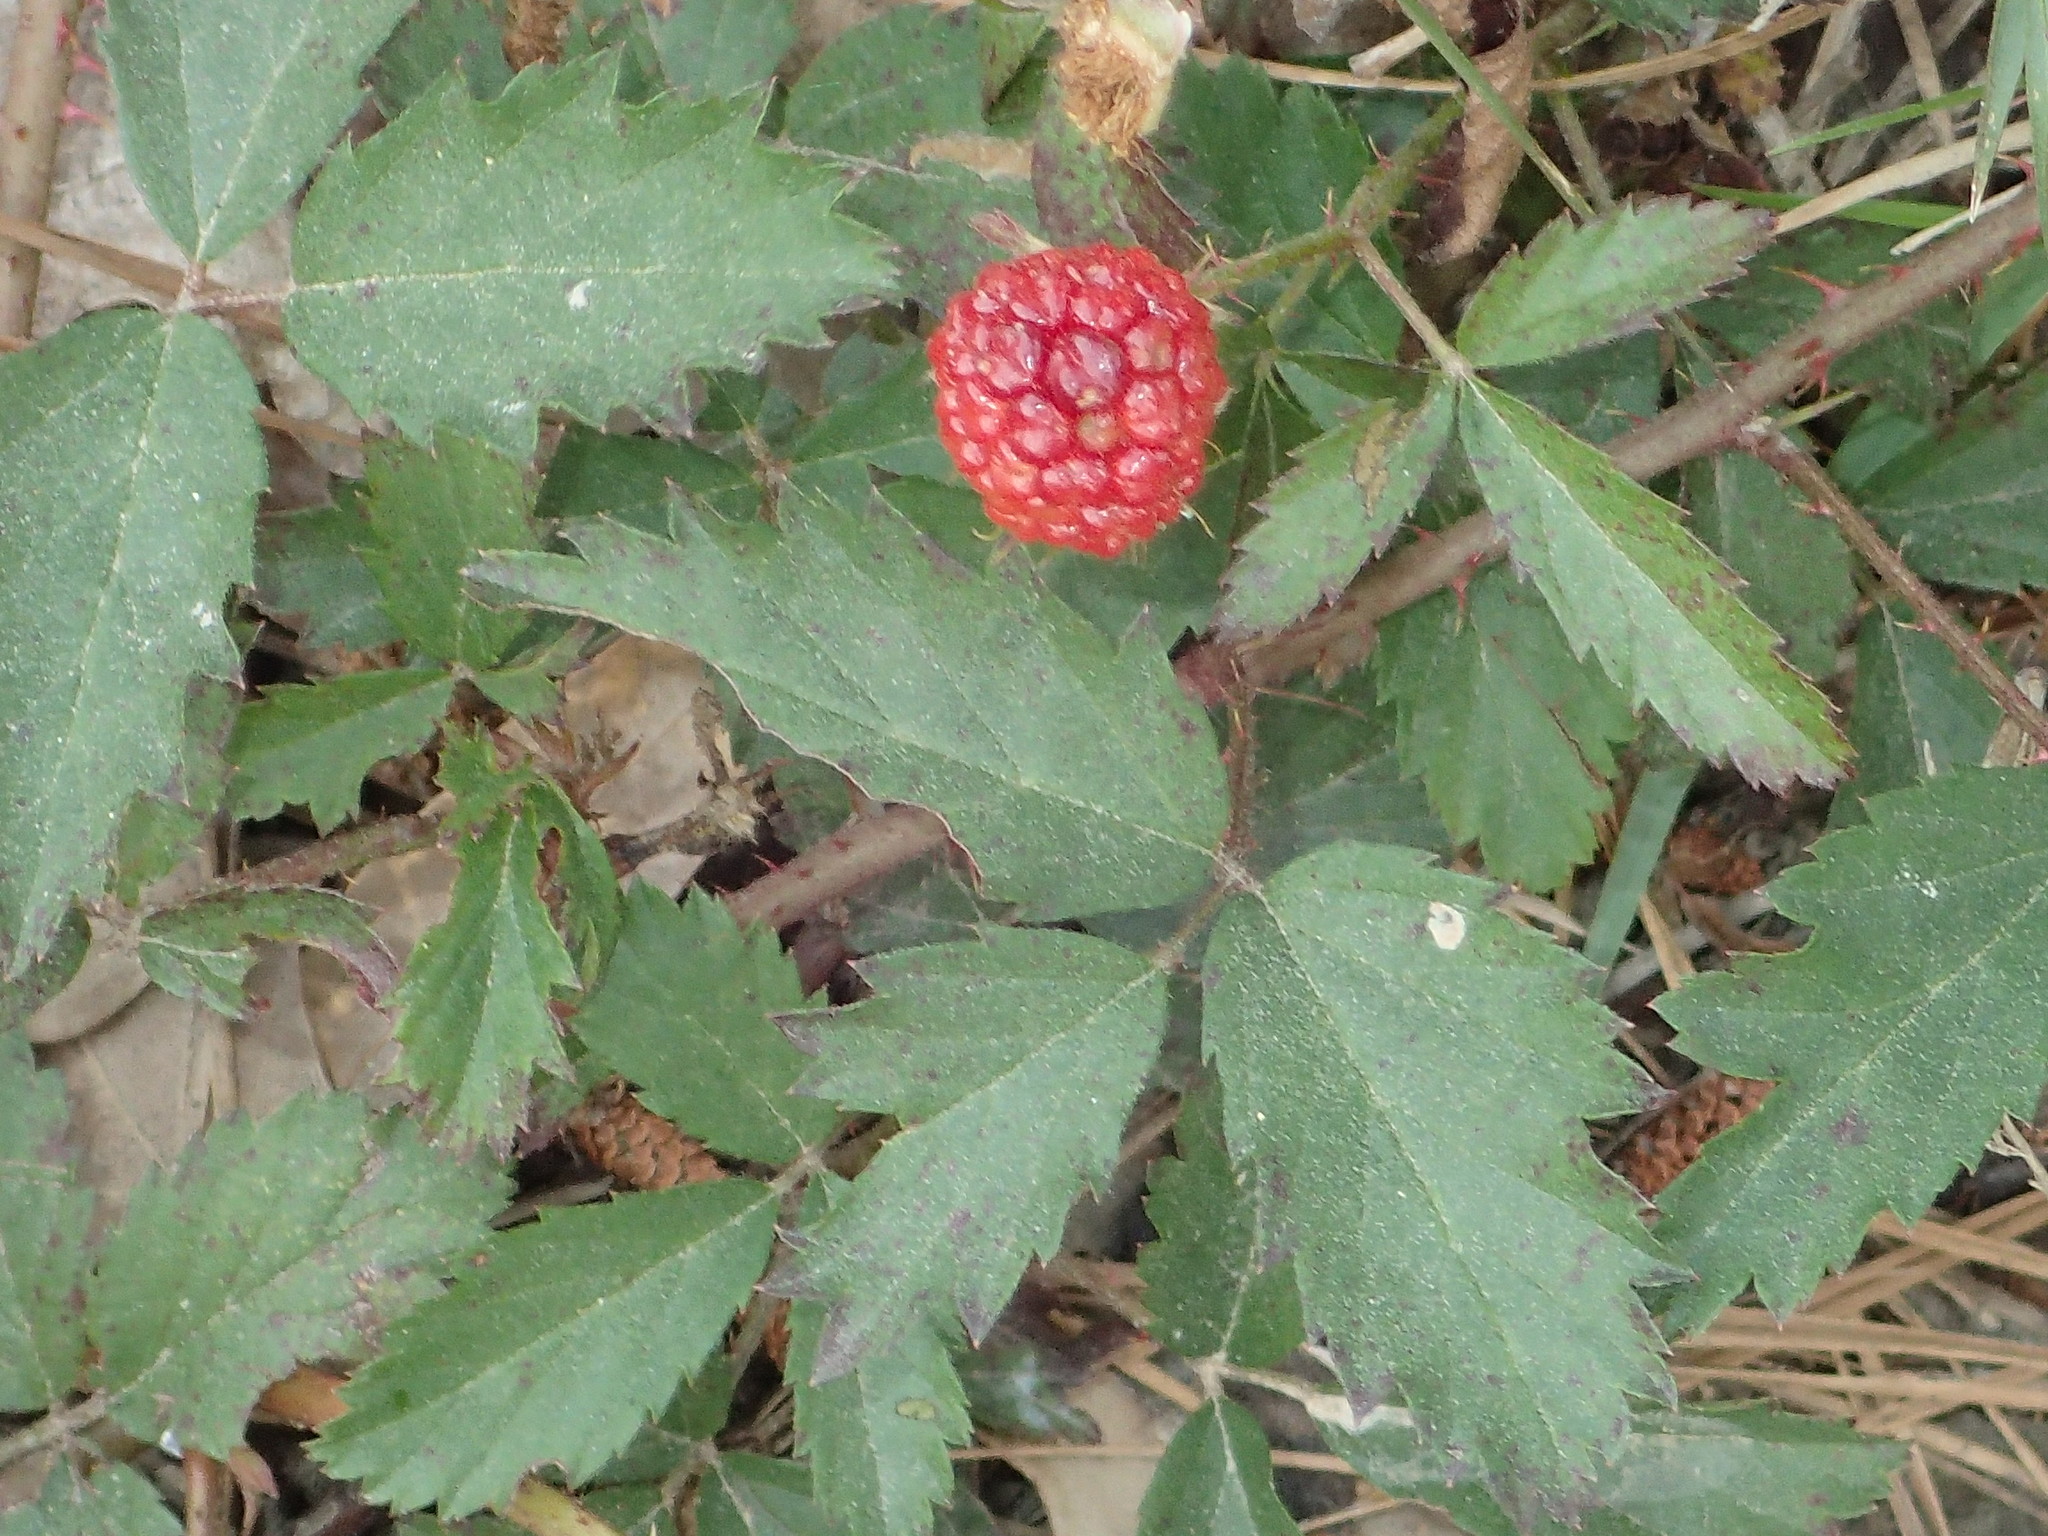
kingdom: Plantae
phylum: Tracheophyta
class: Magnoliopsida
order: Rosales
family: Rosaceae
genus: Rubus
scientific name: Rubus trivialis
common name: Southern dewberry
